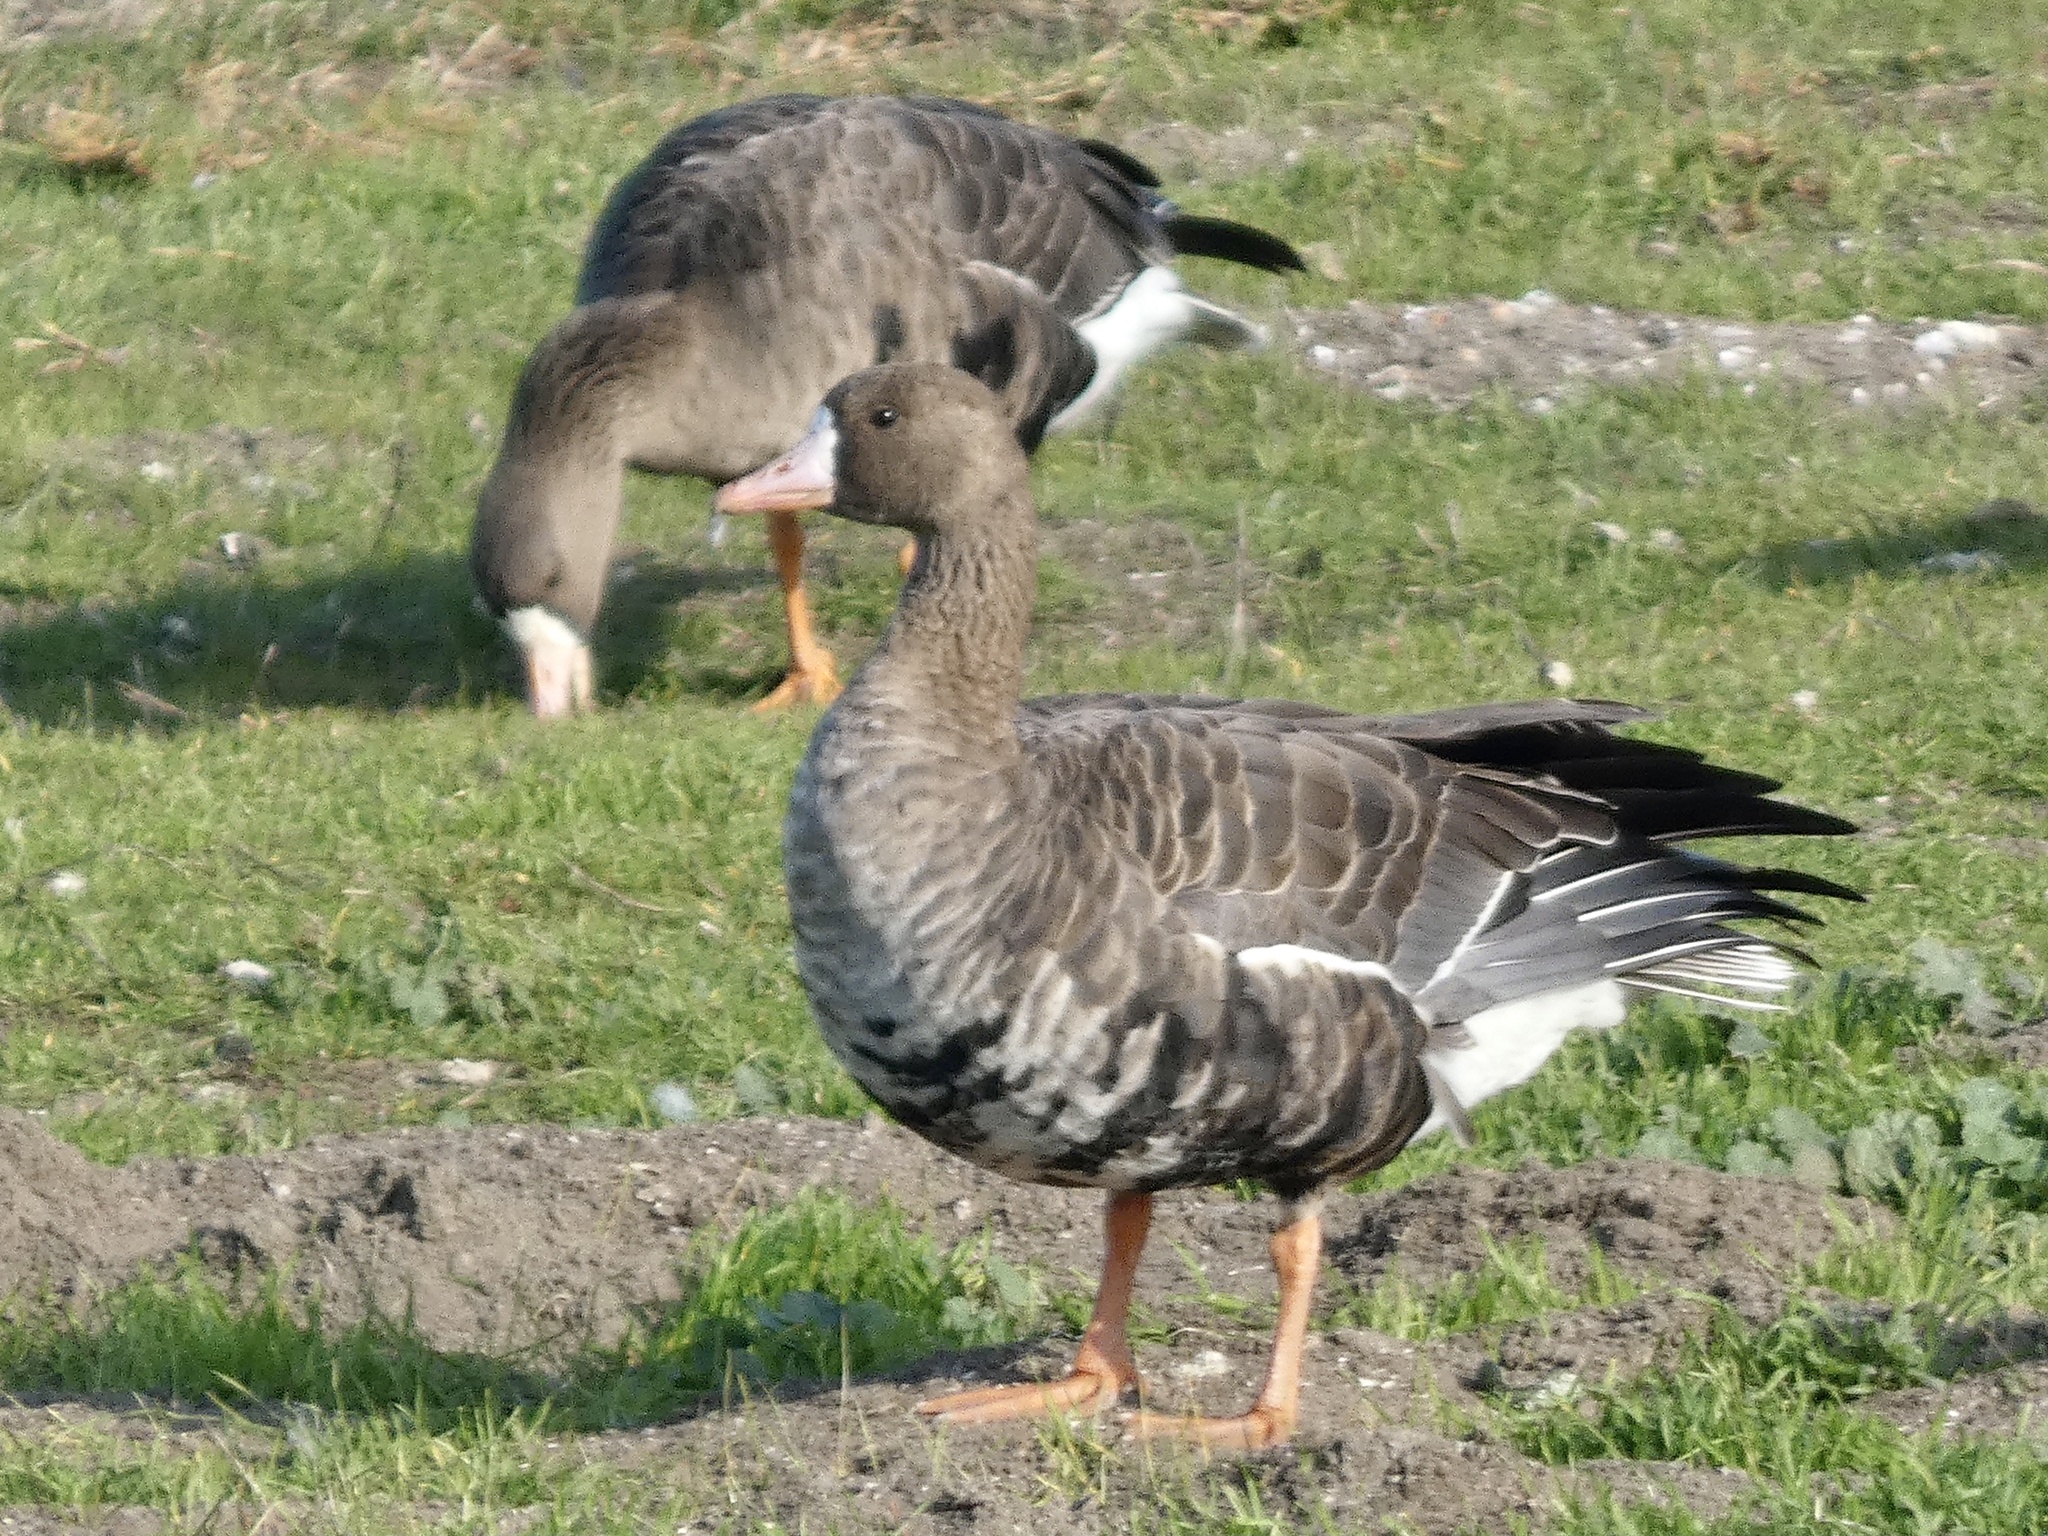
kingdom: Animalia
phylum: Chordata
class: Aves
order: Anseriformes
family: Anatidae
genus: Anser
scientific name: Anser albifrons
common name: Greater white-fronted goose
